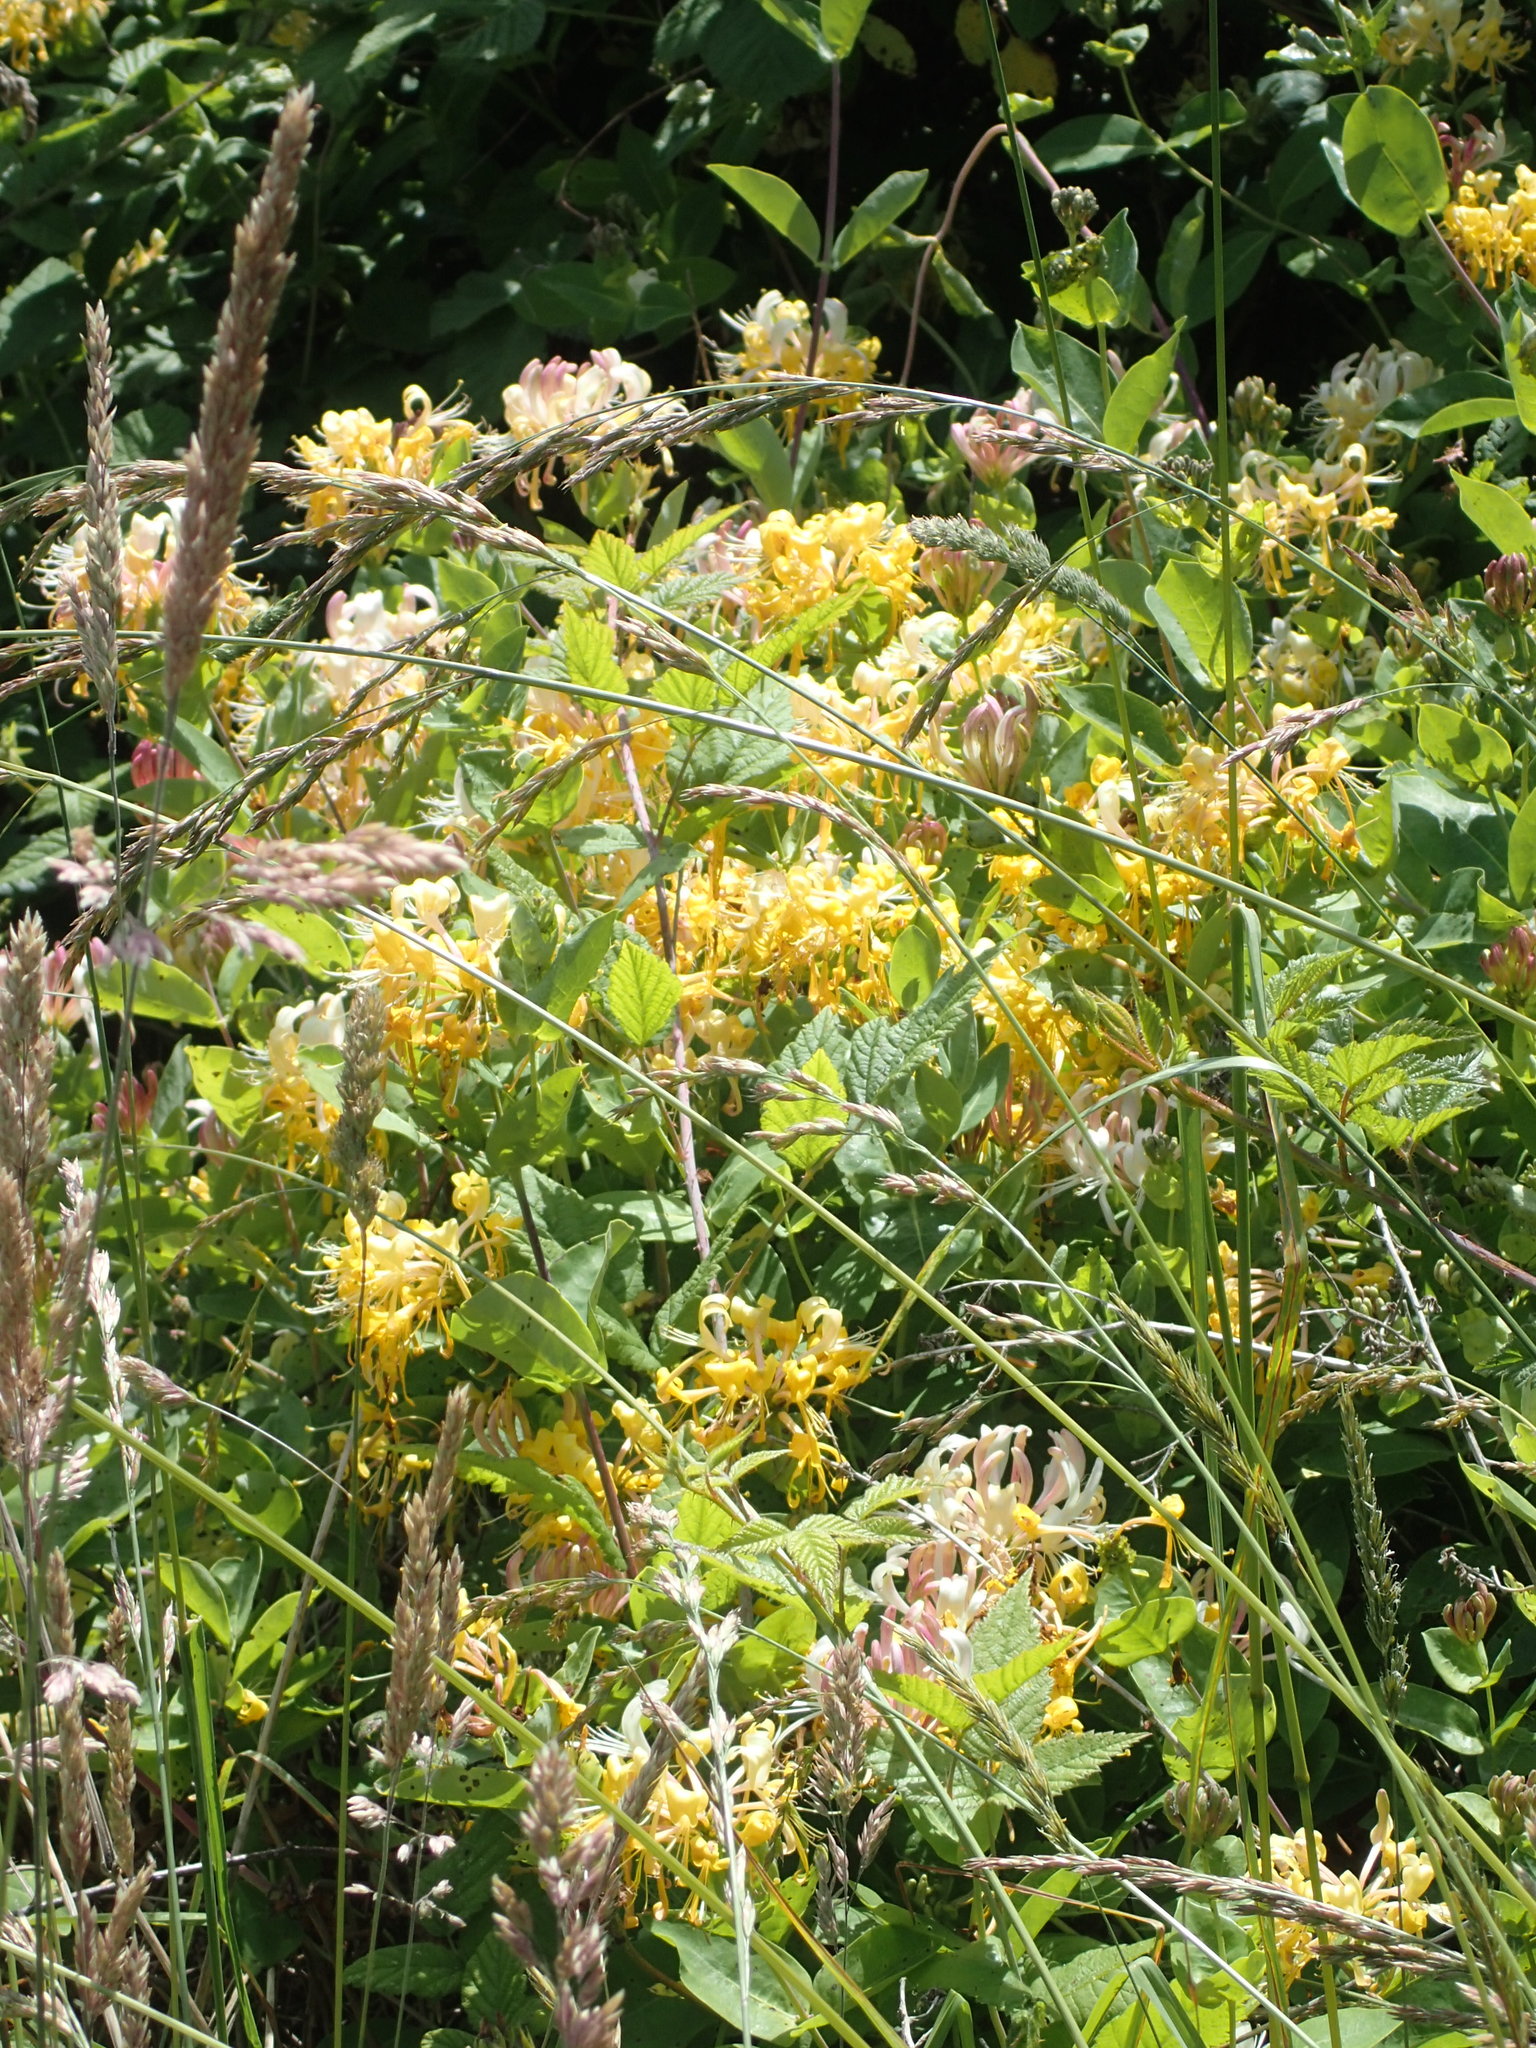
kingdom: Plantae
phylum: Tracheophyta
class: Magnoliopsida
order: Dipsacales
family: Caprifoliaceae
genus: Lonicera
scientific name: Lonicera periclymenum
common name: European honeysuckle
